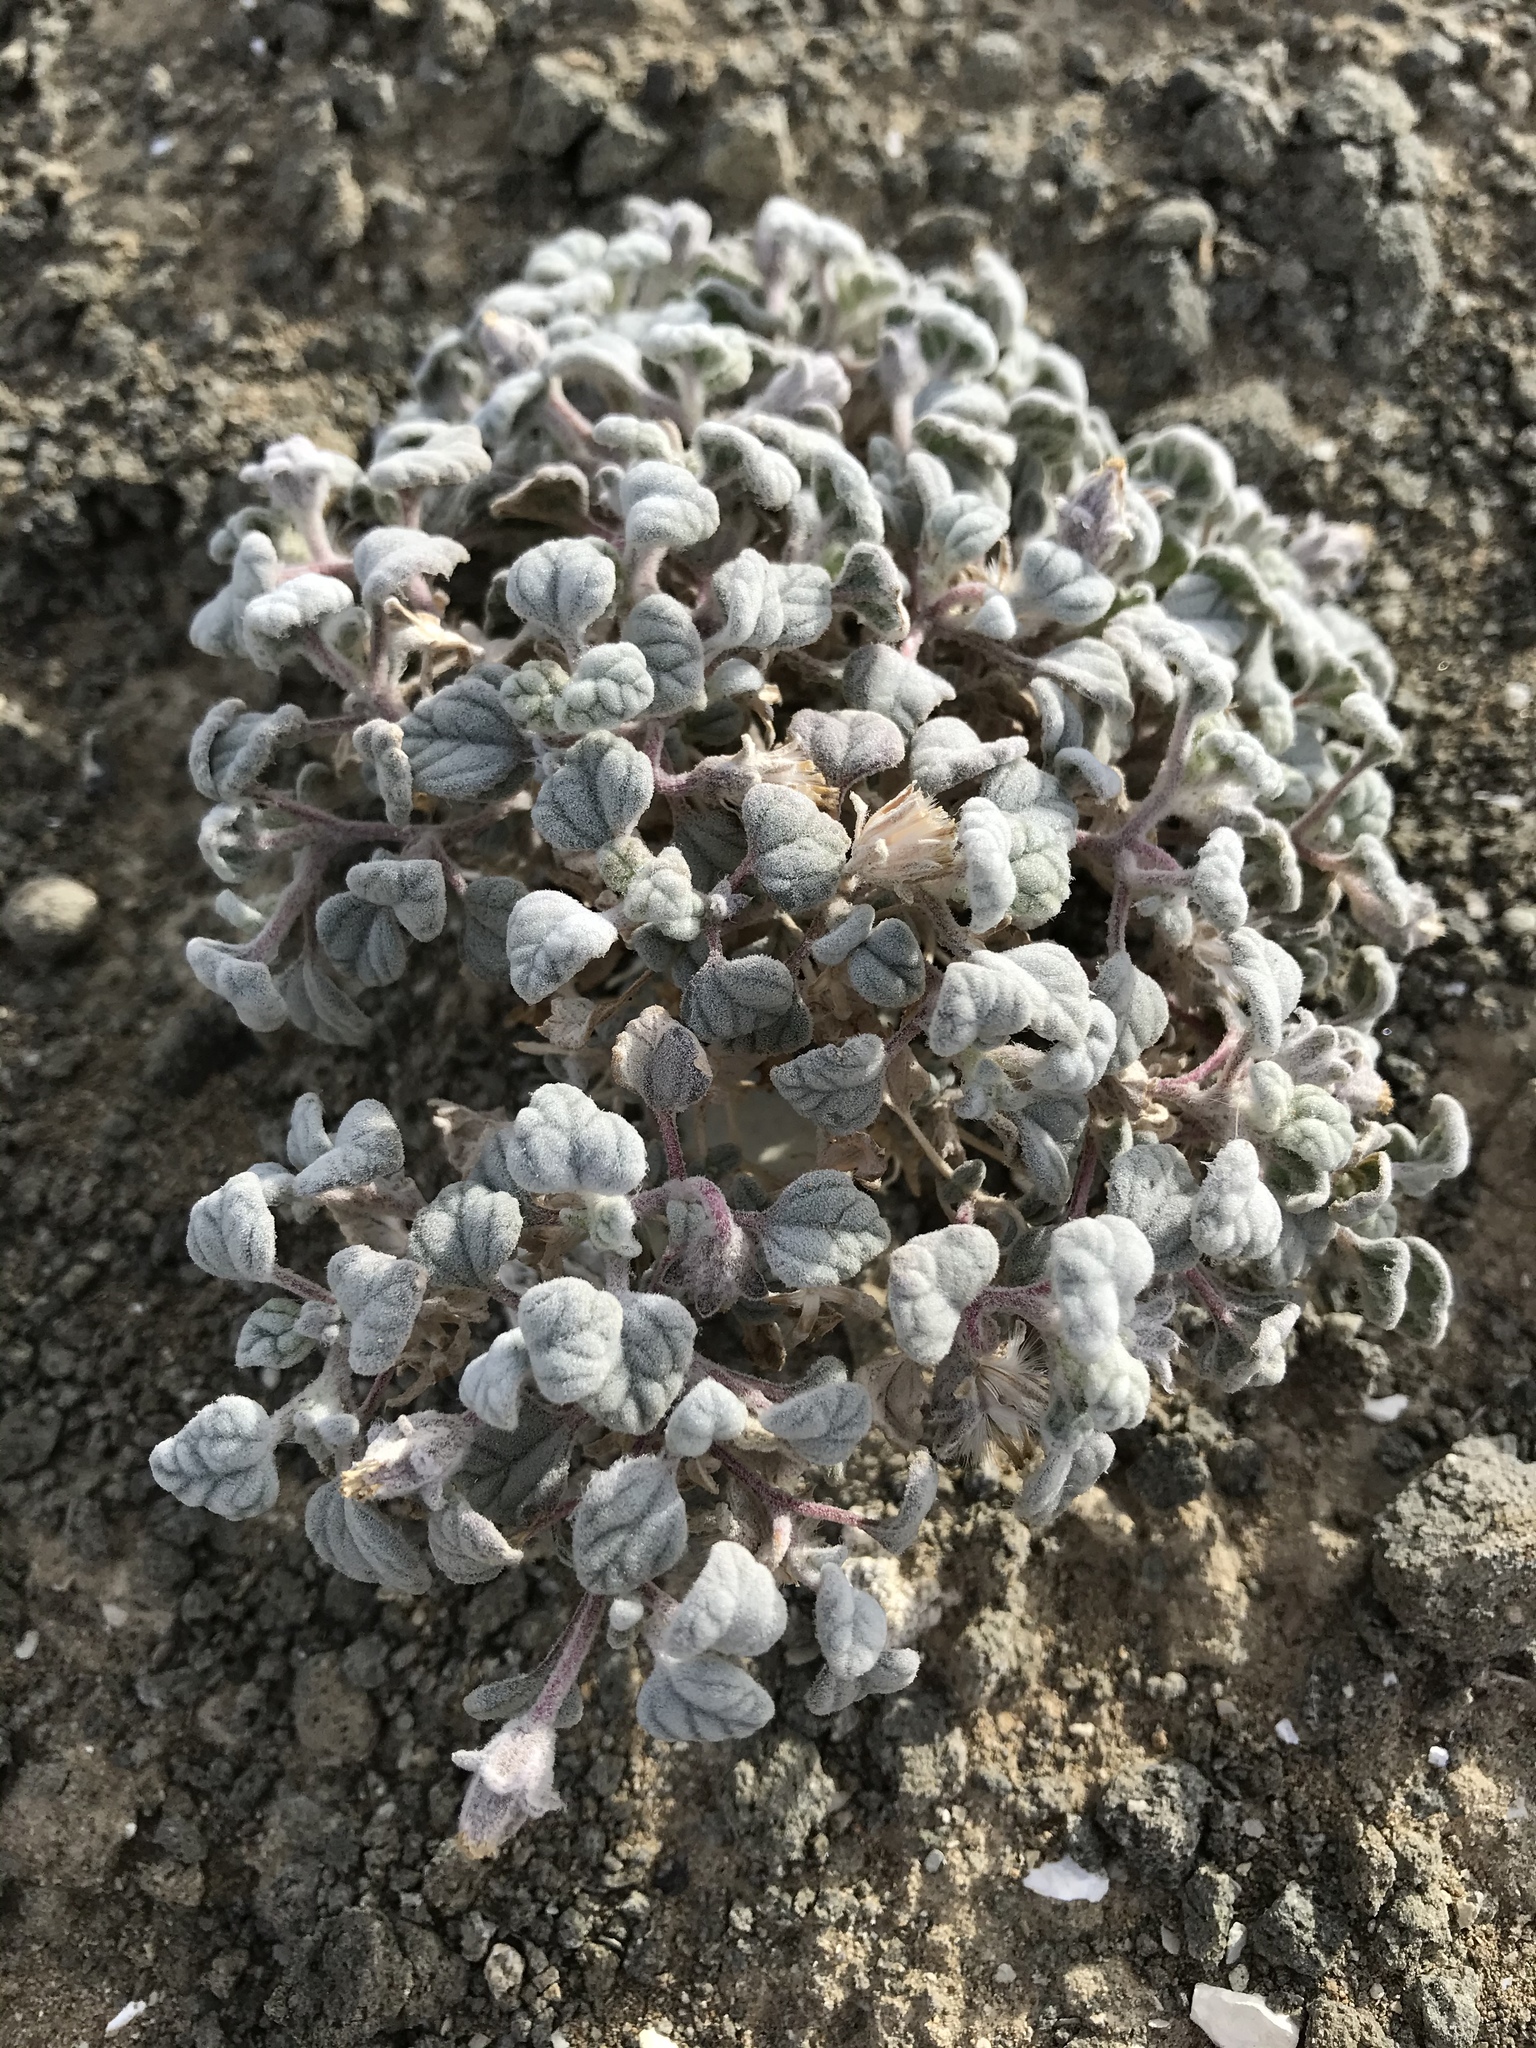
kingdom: Plantae
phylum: Tracheophyta
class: Magnoliopsida
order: Asterales
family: Asteraceae
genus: Psathyrotes
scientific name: Psathyrotes ramosissima
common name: Turtleback
